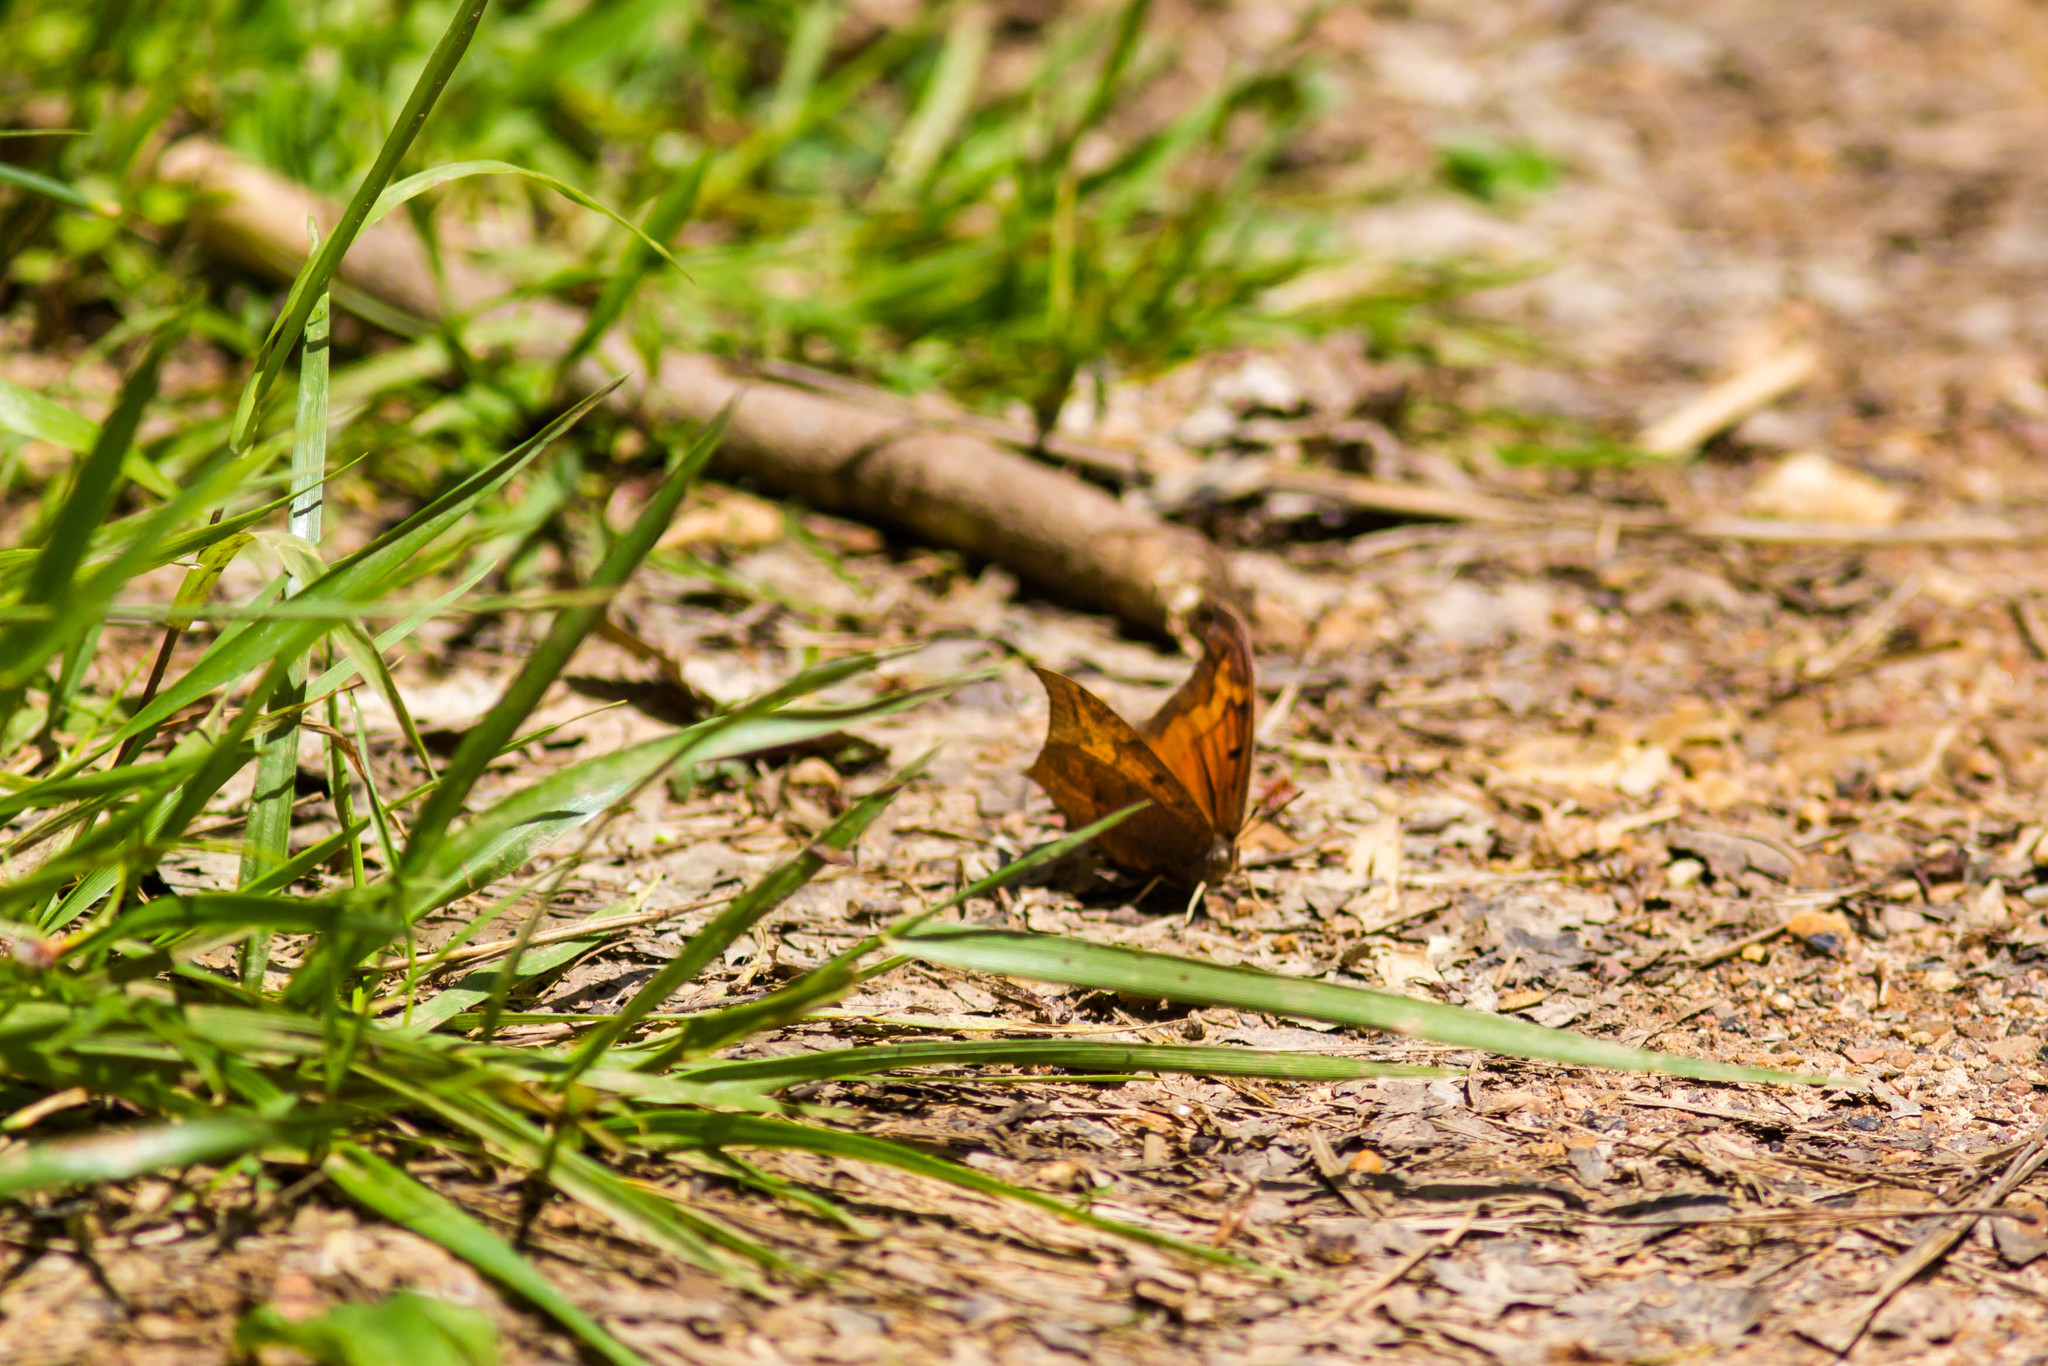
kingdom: Animalia
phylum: Arthropoda
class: Insecta
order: Lepidoptera
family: Nymphalidae
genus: Anaea
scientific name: Anaea andria
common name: Goatweed leafwing
